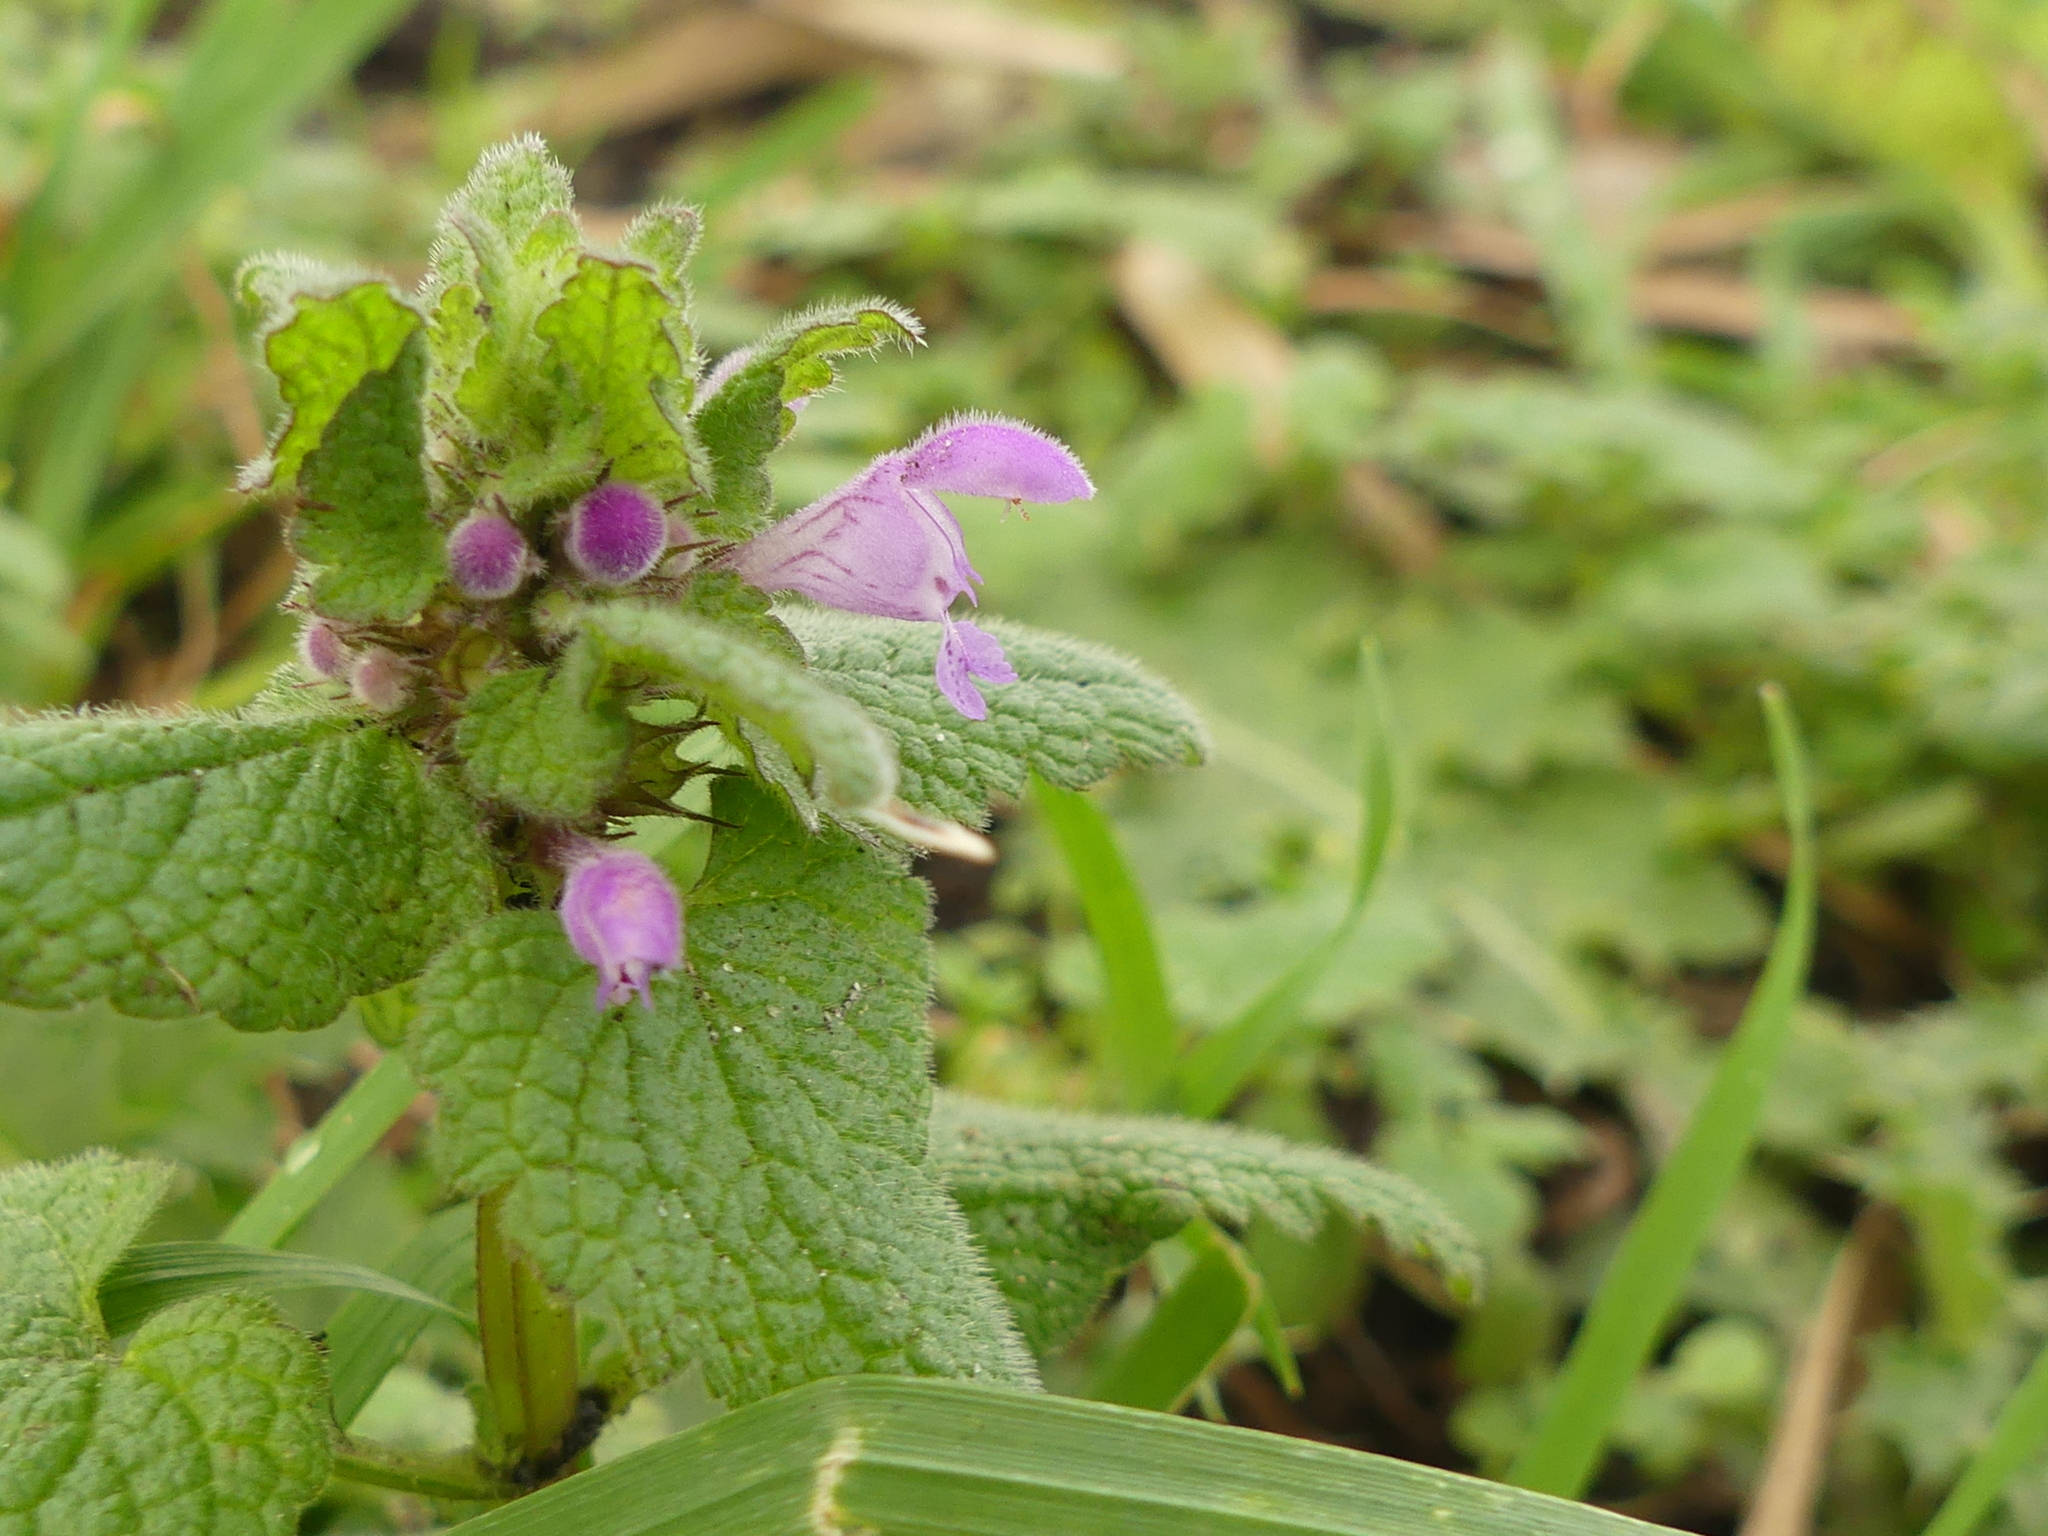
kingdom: Plantae
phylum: Tracheophyta
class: Magnoliopsida
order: Lamiales
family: Lamiaceae
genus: Lamium
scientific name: Lamium purpureum
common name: Red dead-nettle
